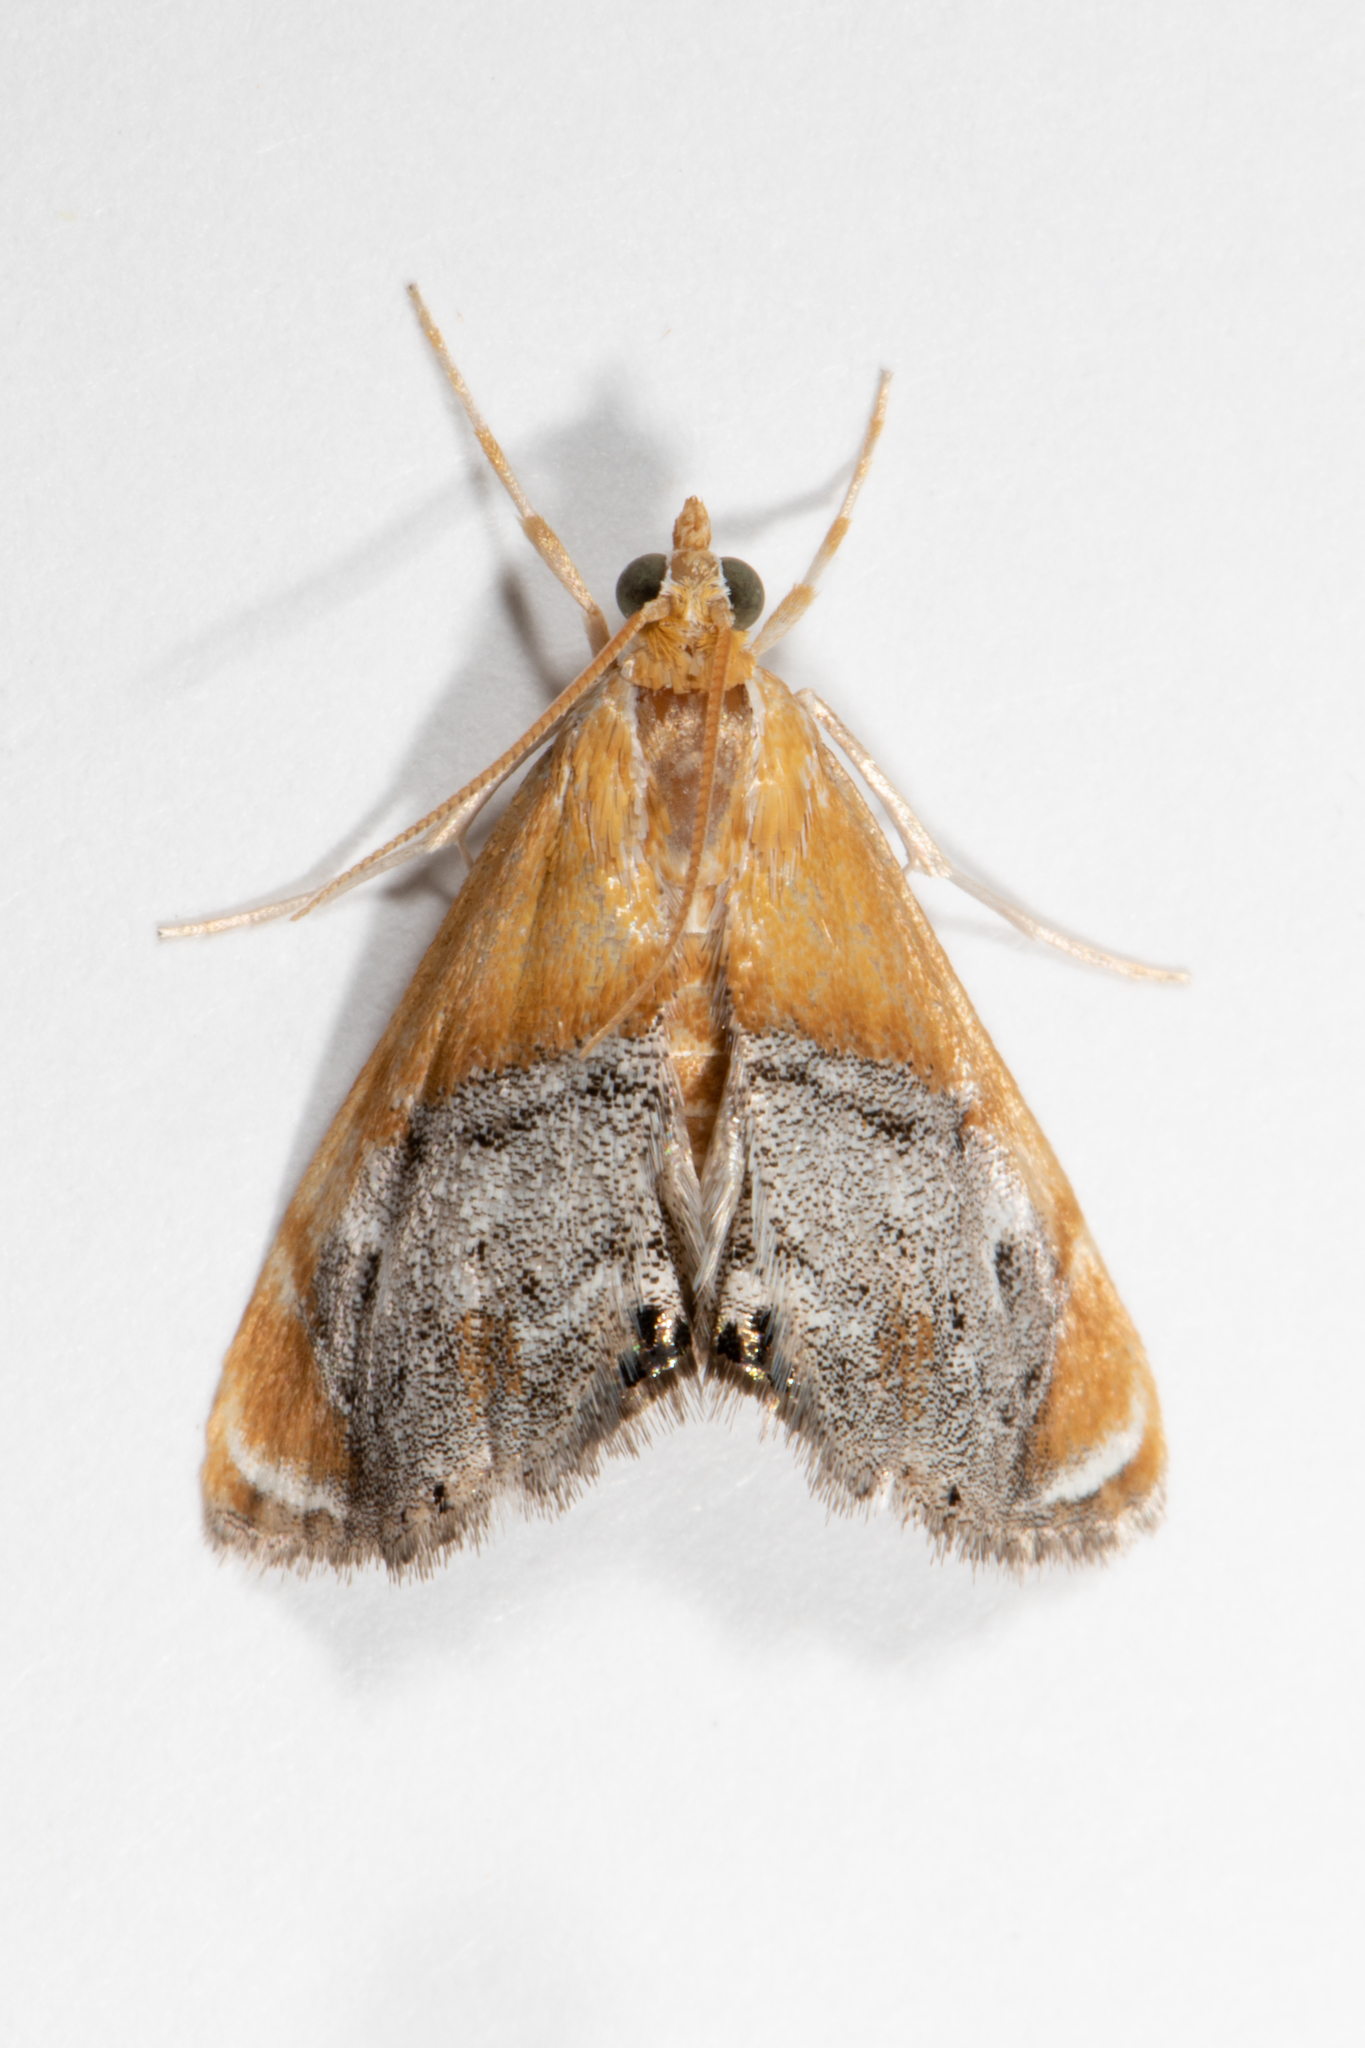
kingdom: Animalia
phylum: Arthropoda
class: Insecta
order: Lepidoptera
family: Crambidae
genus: Chalcoela
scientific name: Chalcoela iphitalis
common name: Sooty-winged chalcoela moth
